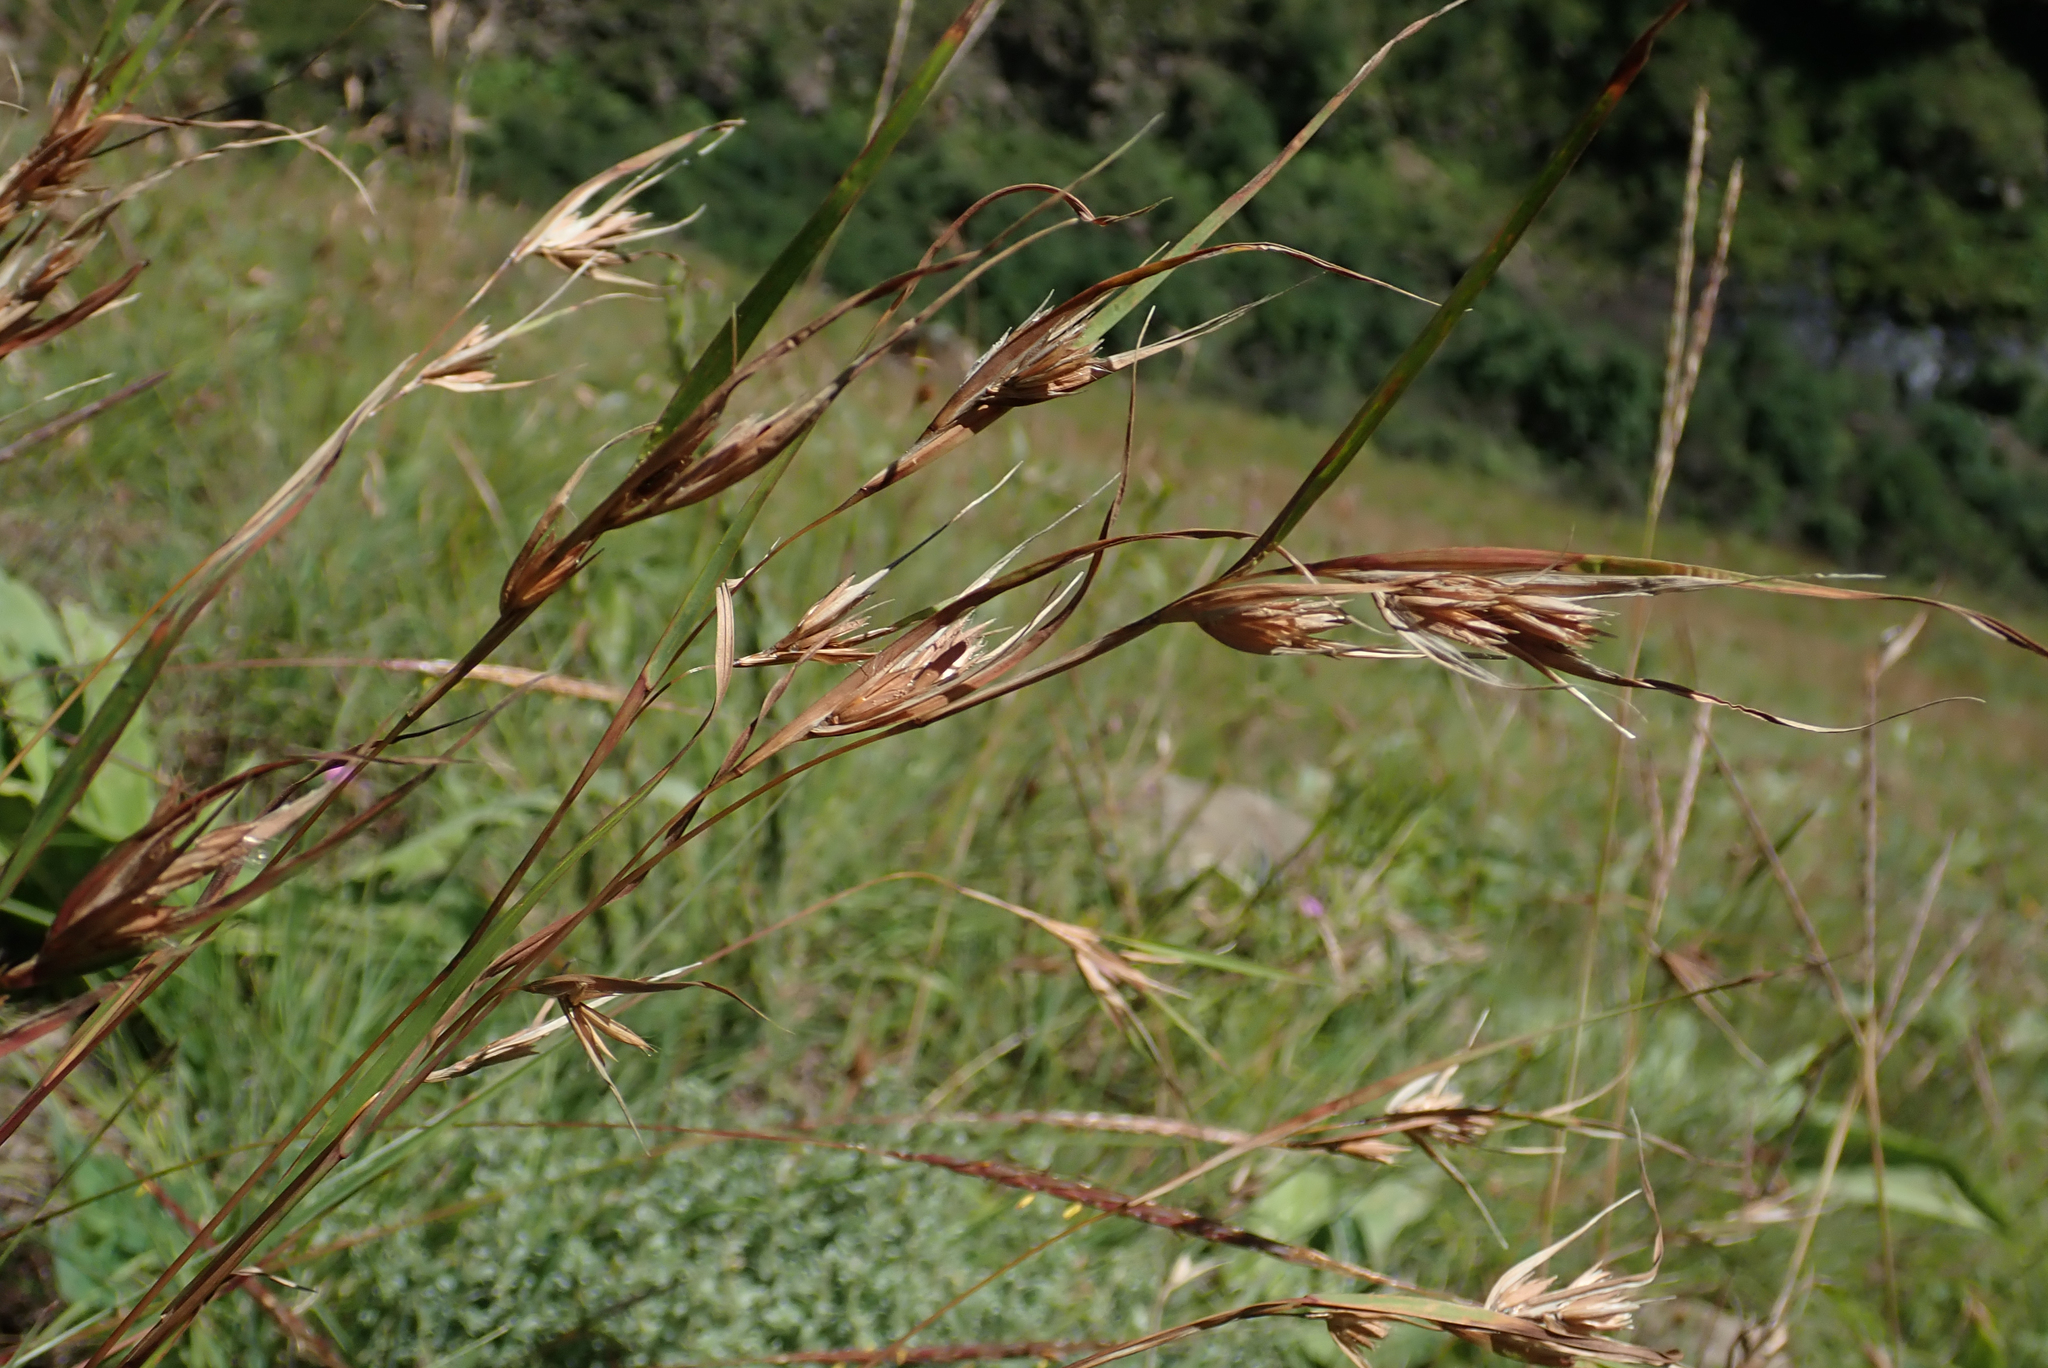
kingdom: Plantae
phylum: Tracheophyta
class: Liliopsida
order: Poales
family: Poaceae
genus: Themeda
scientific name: Themeda triandra
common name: Kangaroo grass
